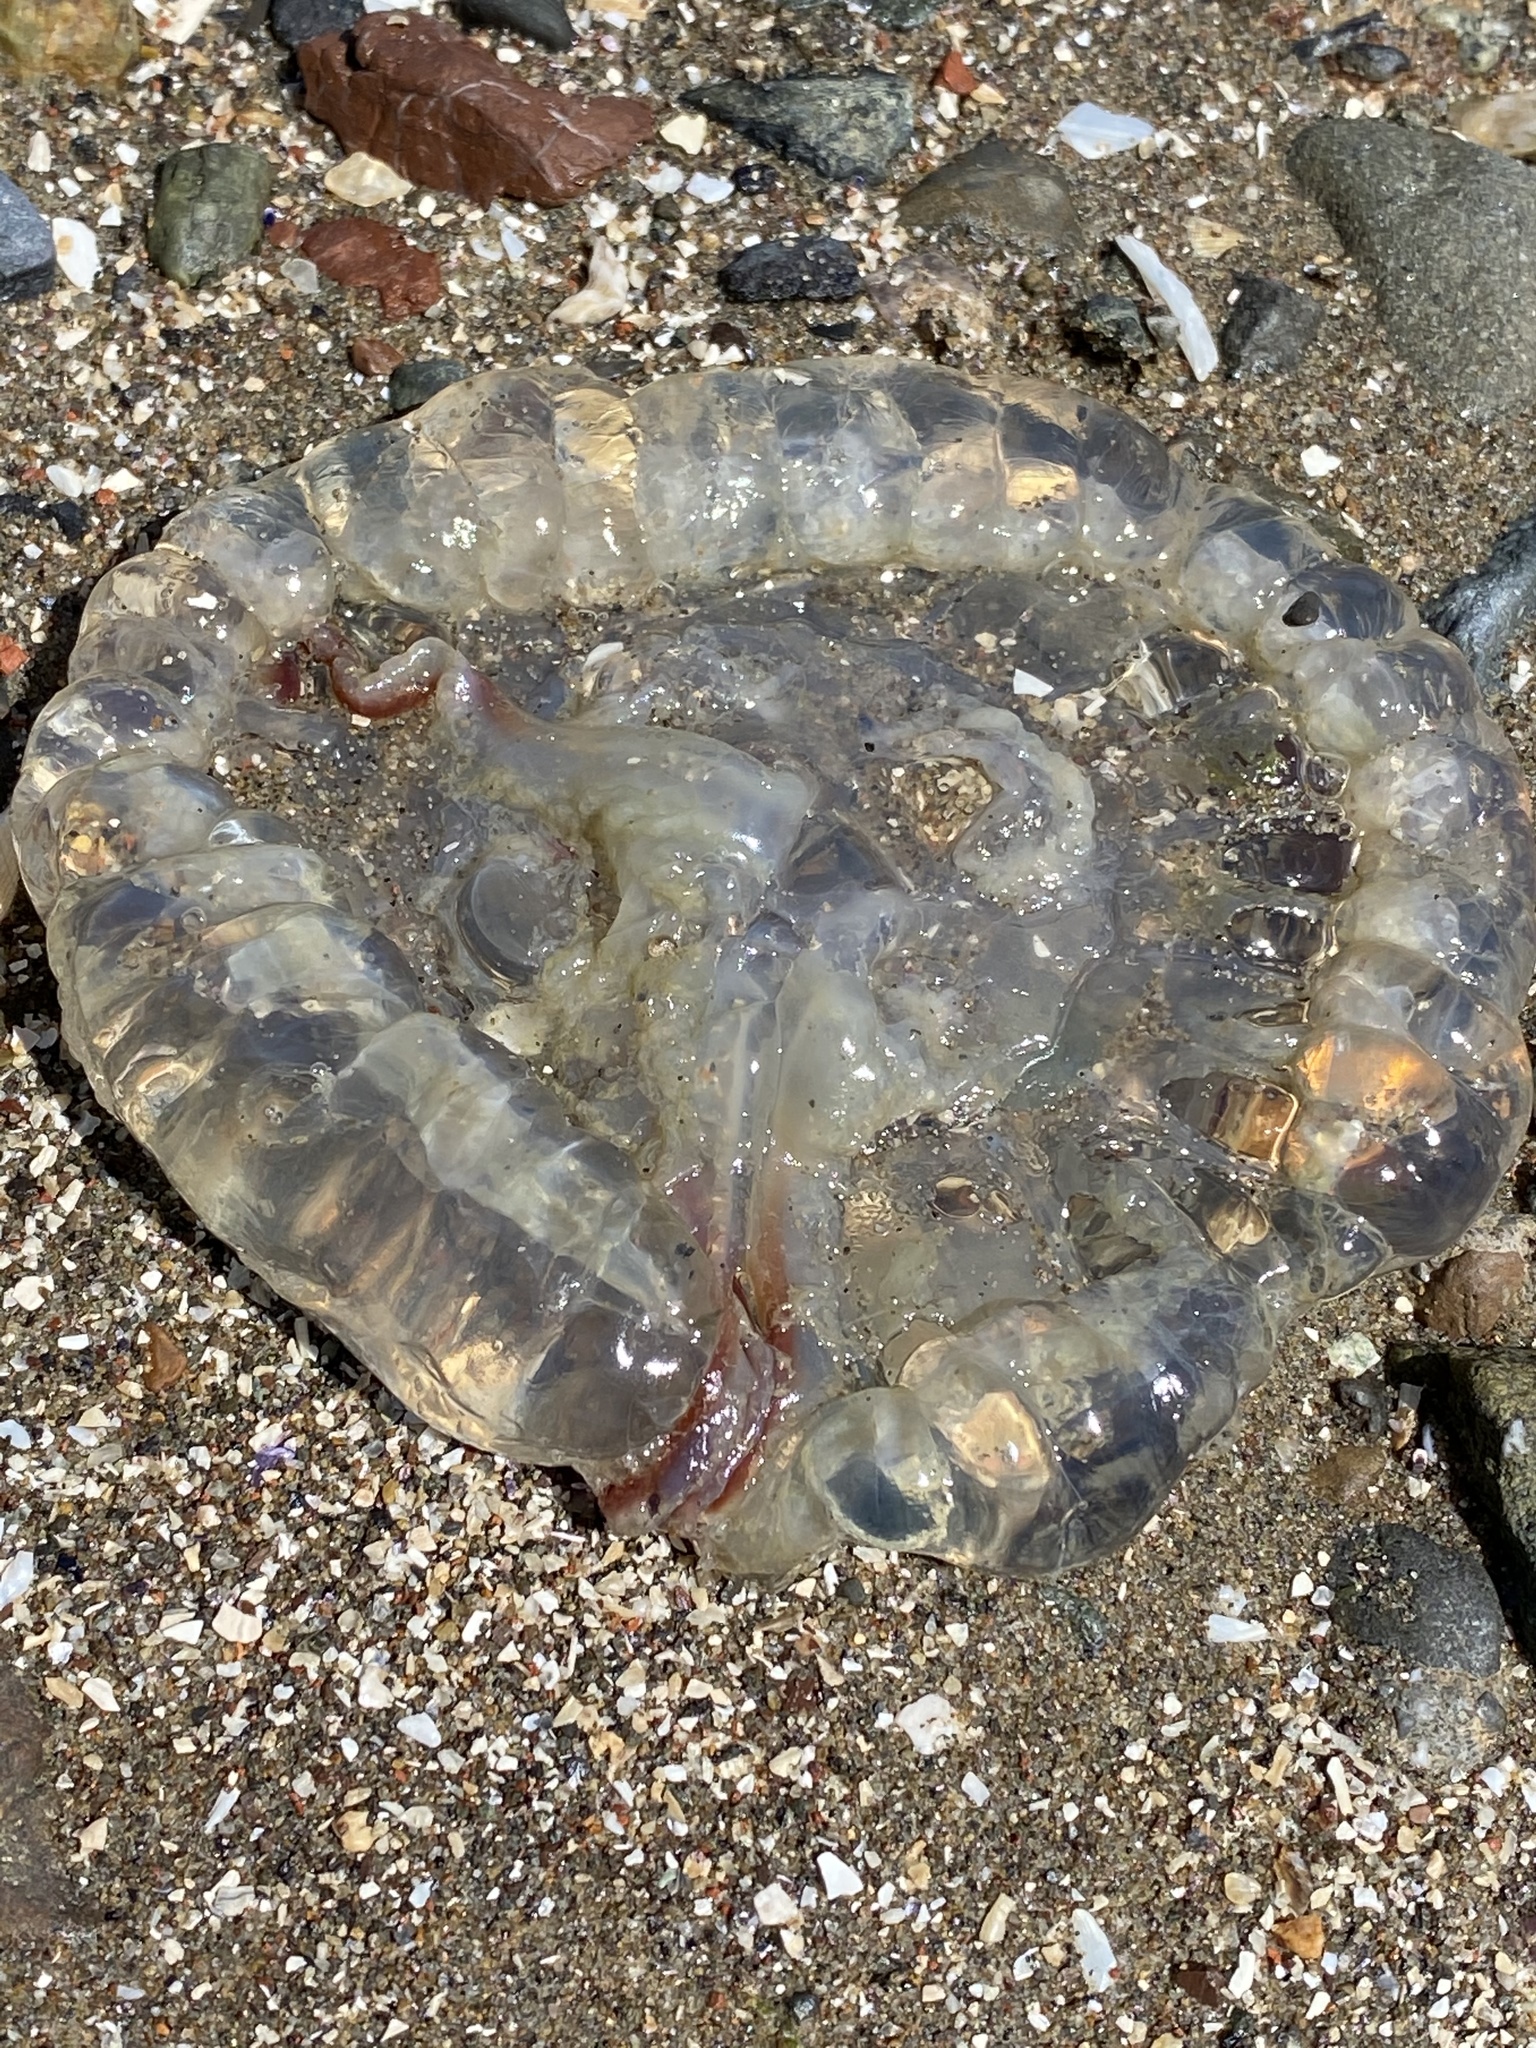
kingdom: Animalia
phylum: Cnidaria
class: Scyphozoa
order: Semaeostomeae
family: Pelagiidae
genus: Chrysaora
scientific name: Chrysaora fuscescens
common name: Sea nettle
